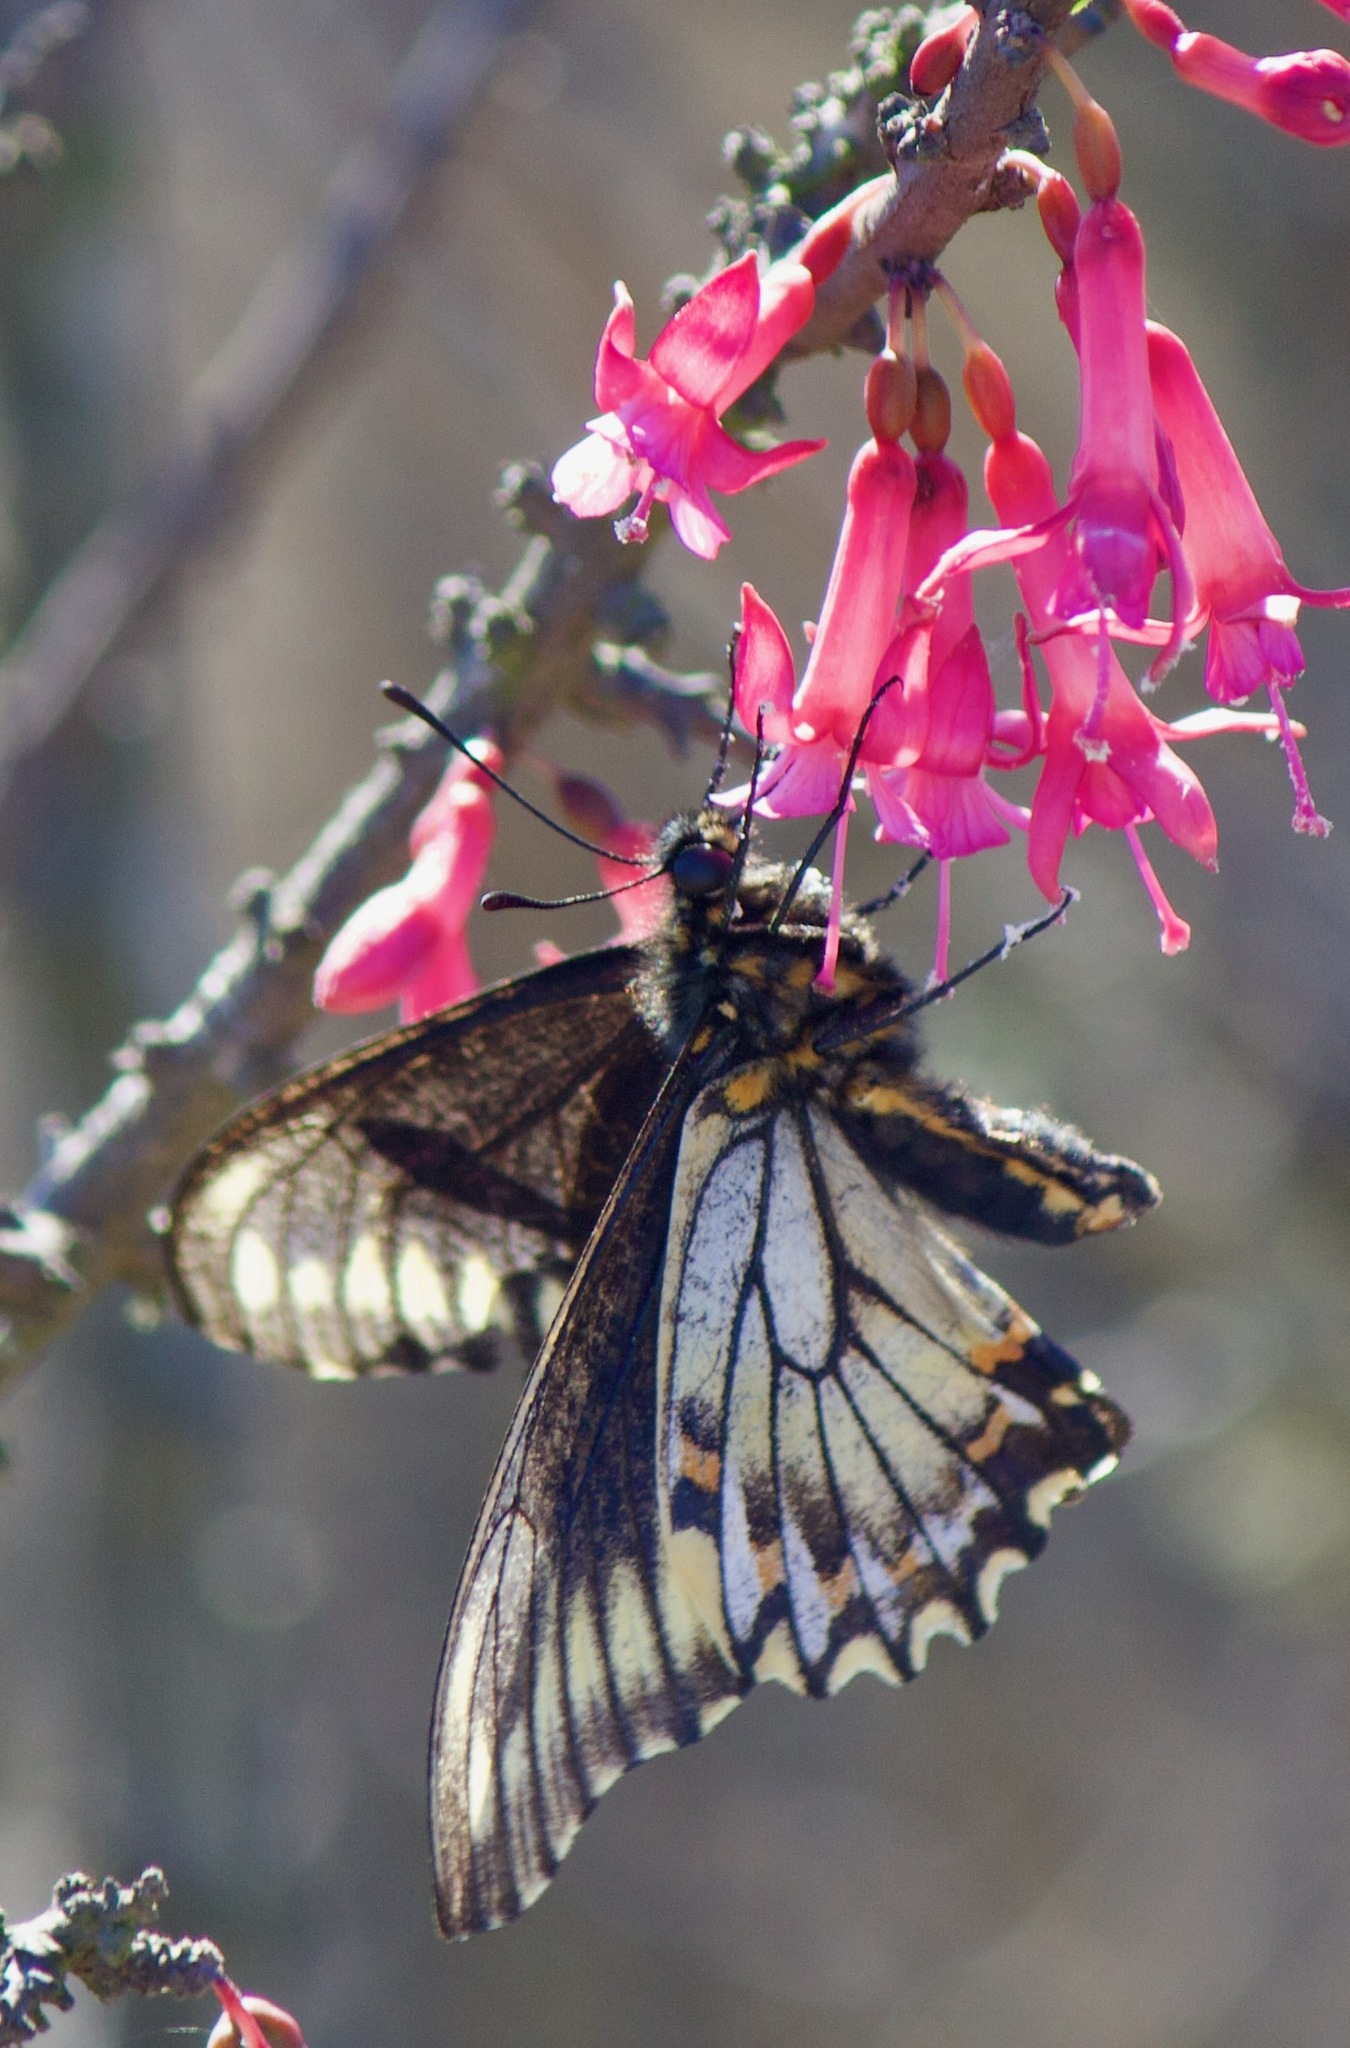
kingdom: Animalia
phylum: Arthropoda
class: Insecta
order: Lepidoptera
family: Papilionidae
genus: Battus
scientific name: Battus polydamas
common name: Polydamas swallowtail
